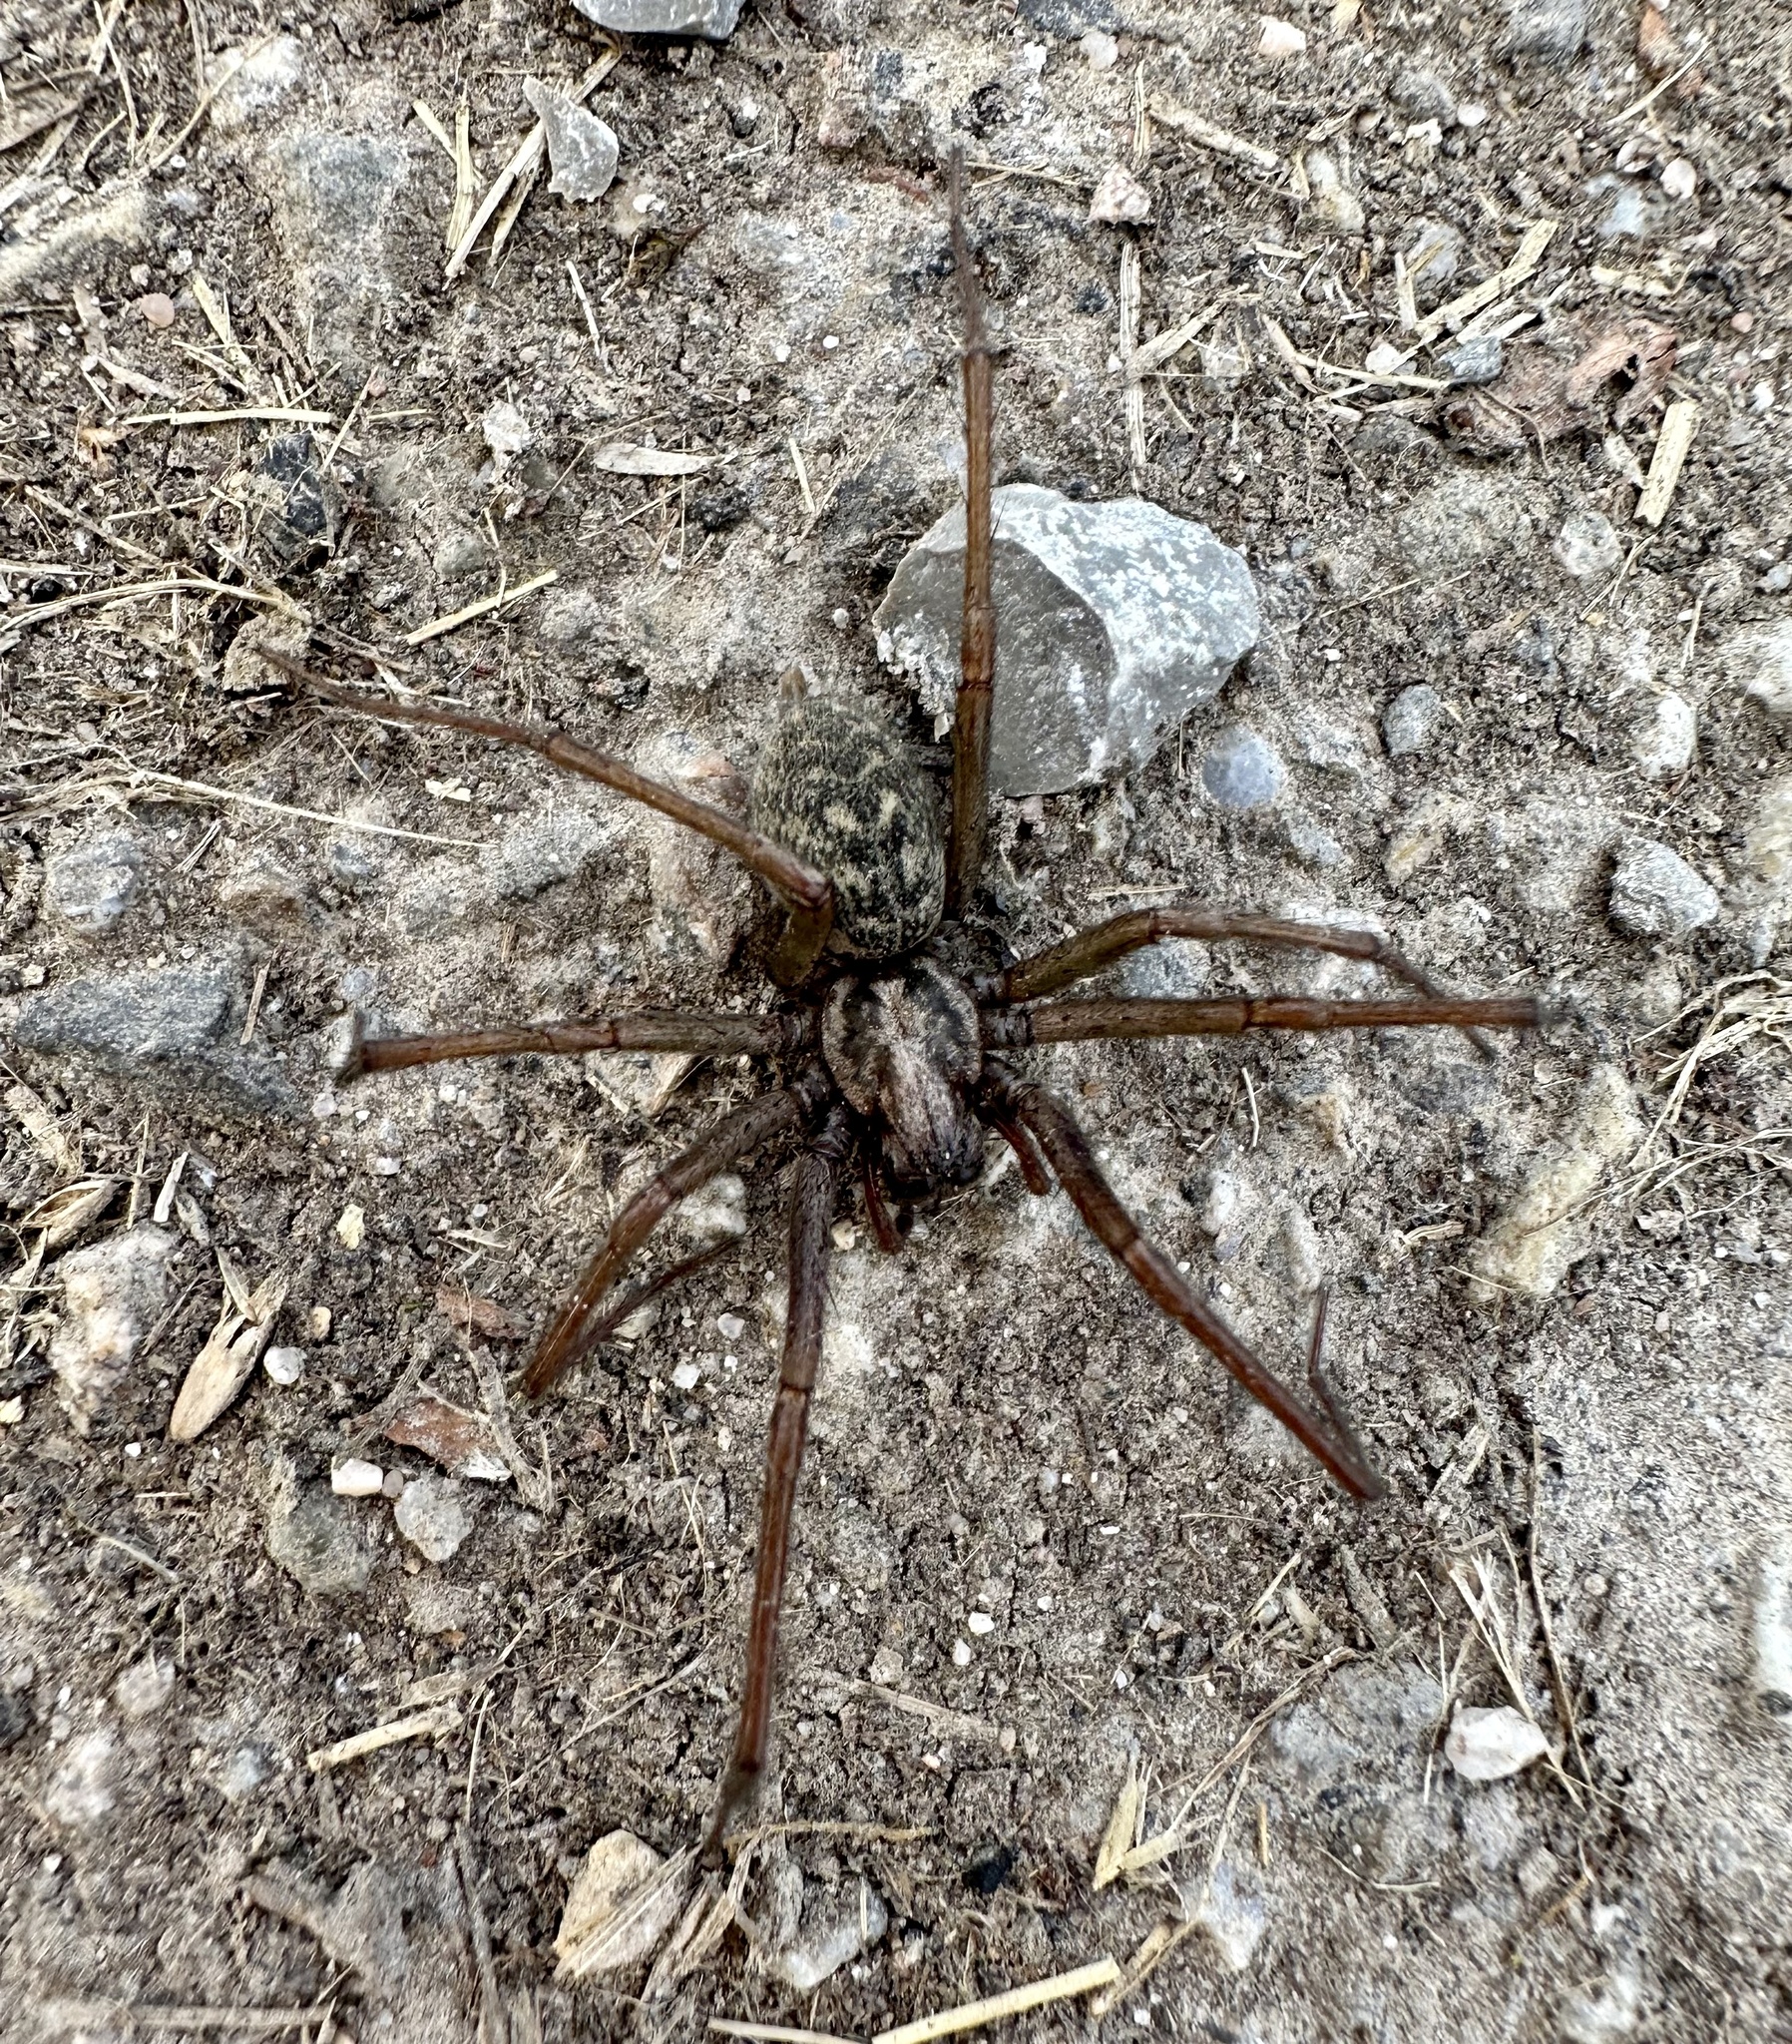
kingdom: Animalia
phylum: Arthropoda
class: Arachnida
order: Araneae
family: Agelenidae
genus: Eratigena
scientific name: Eratigena atrica
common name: Giant house spider
